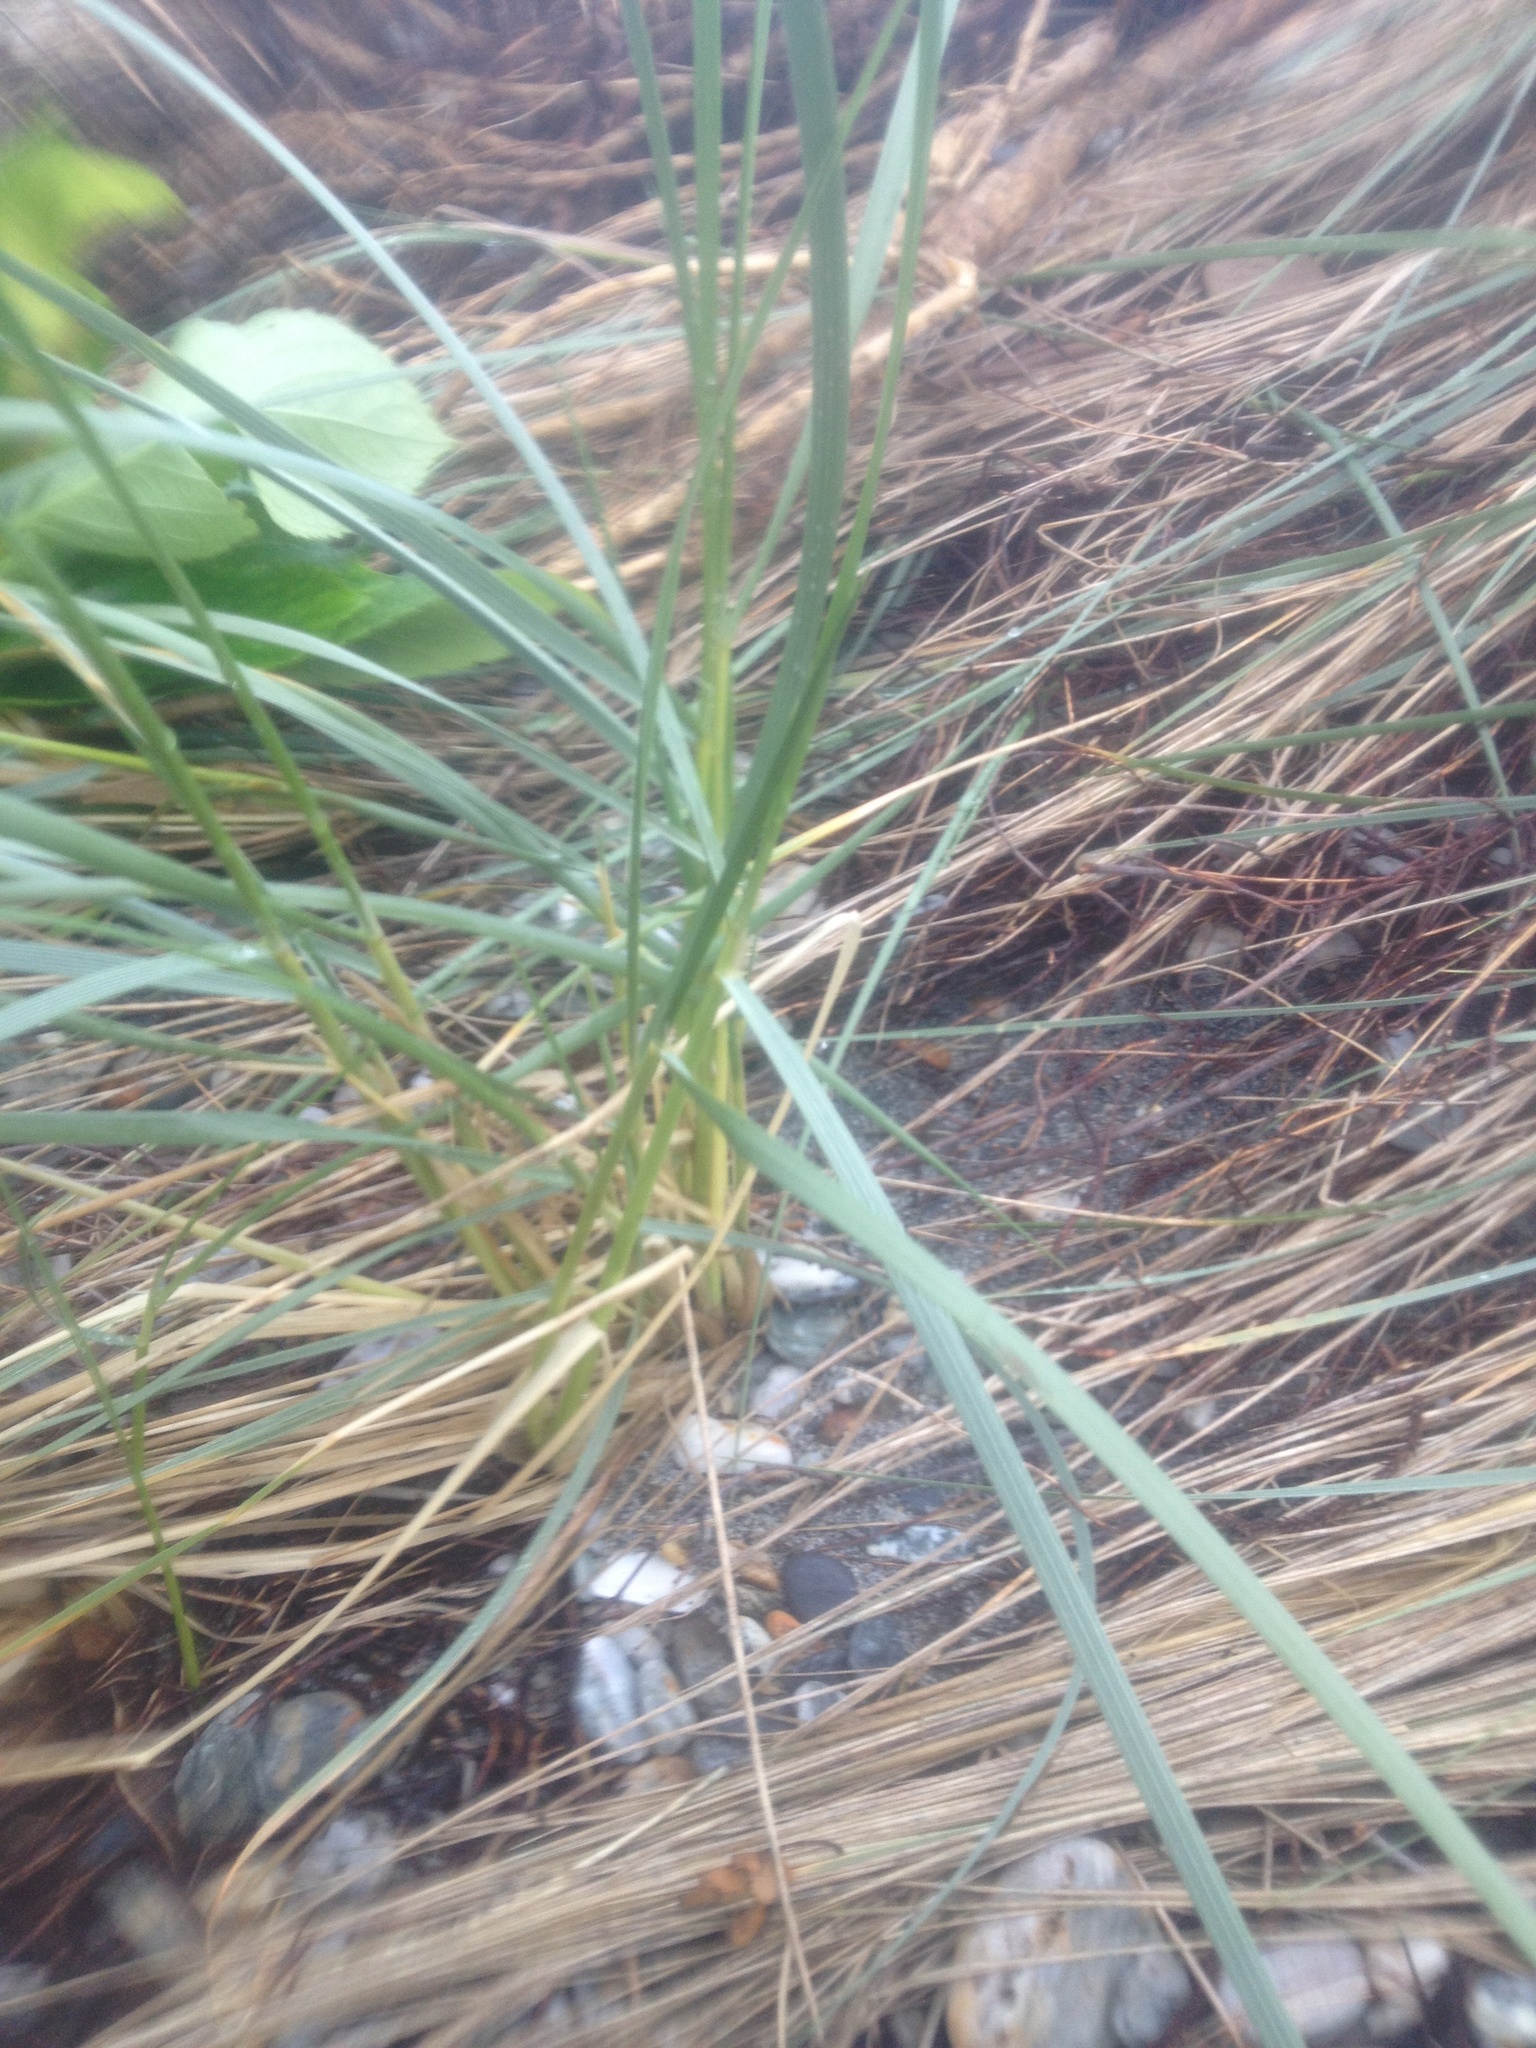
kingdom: Plantae
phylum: Tracheophyta
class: Liliopsida
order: Poales
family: Poaceae
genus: Calamagrostis
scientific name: Calamagrostis arenaria
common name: European beachgrass
